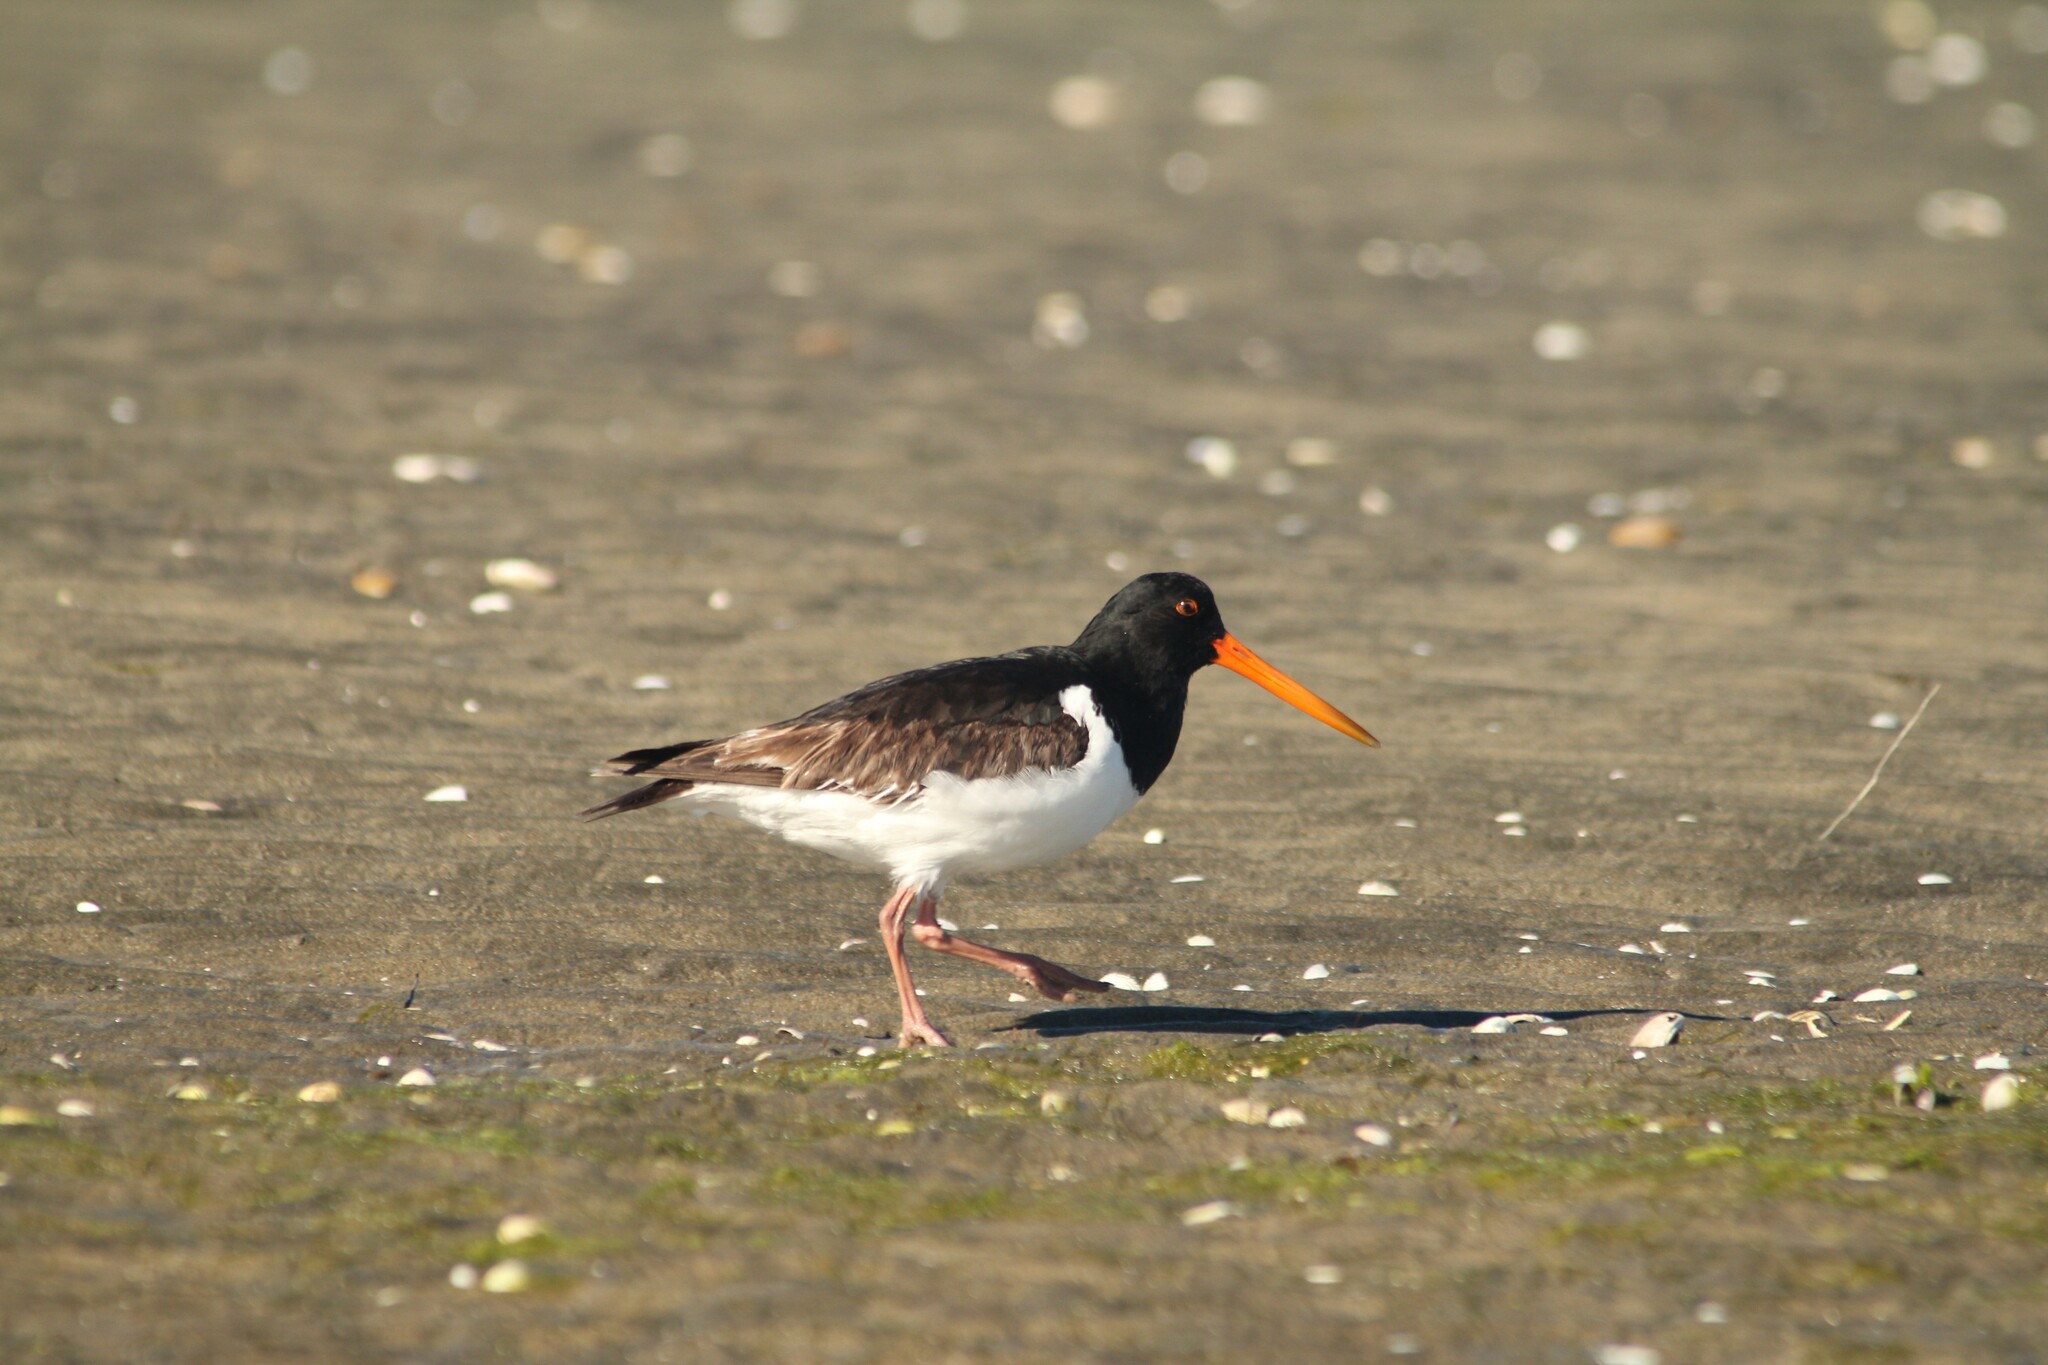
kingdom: Animalia
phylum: Chordata
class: Aves
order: Charadriiformes
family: Haematopodidae
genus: Haematopus
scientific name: Haematopus finschi
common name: South island oystercatcher
